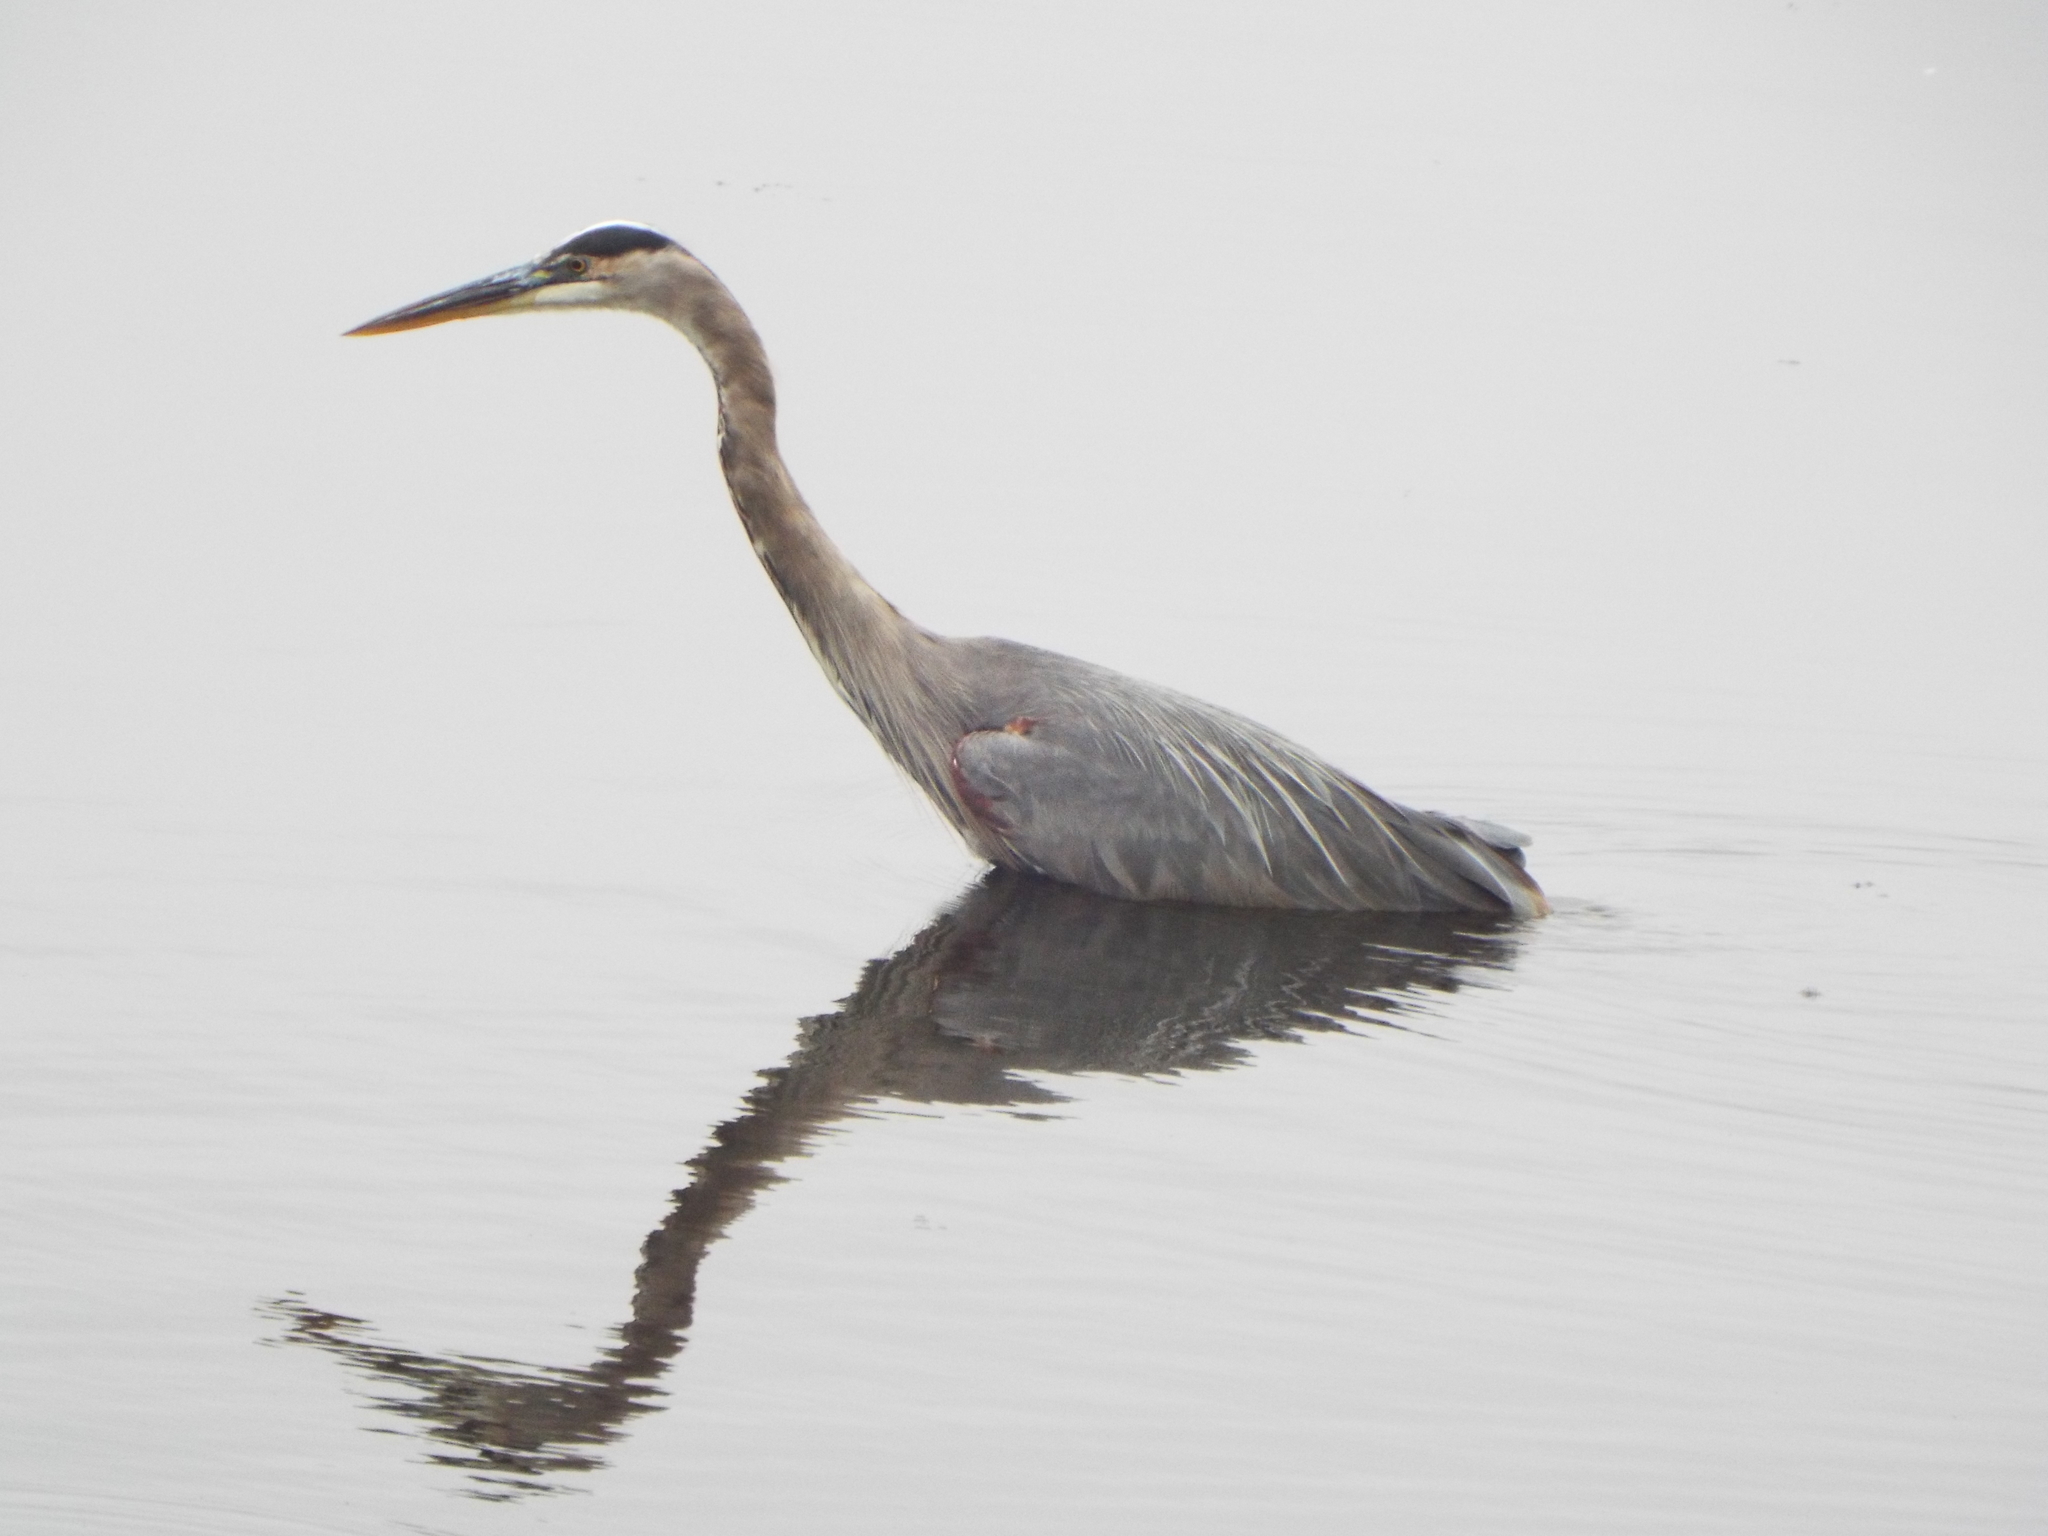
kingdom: Animalia
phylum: Chordata
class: Aves
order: Pelecaniformes
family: Ardeidae
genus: Ardea
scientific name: Ardea herodias
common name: Great blue heron
